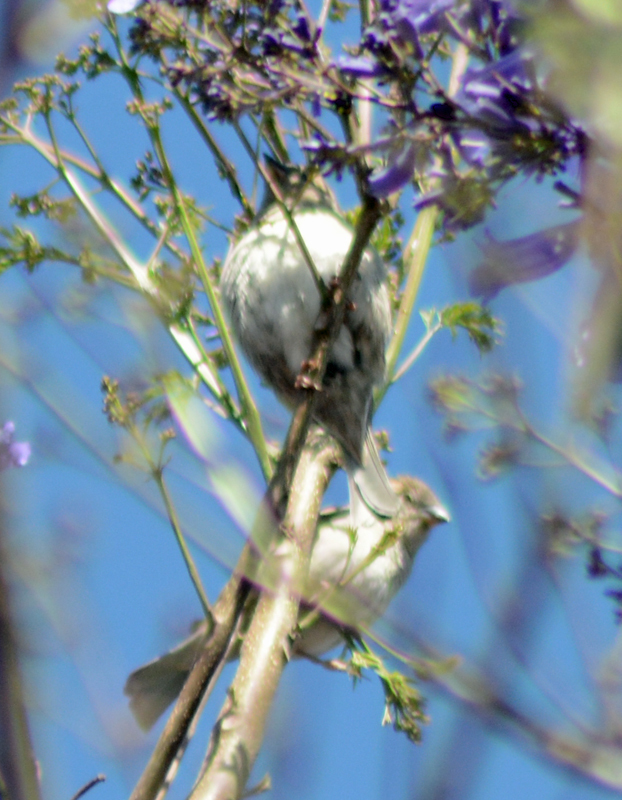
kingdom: Animalia
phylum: Chordata
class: Aves
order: Passeriformes
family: Passeridae
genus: Passer
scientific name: Passer domesticus
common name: House sparrow
